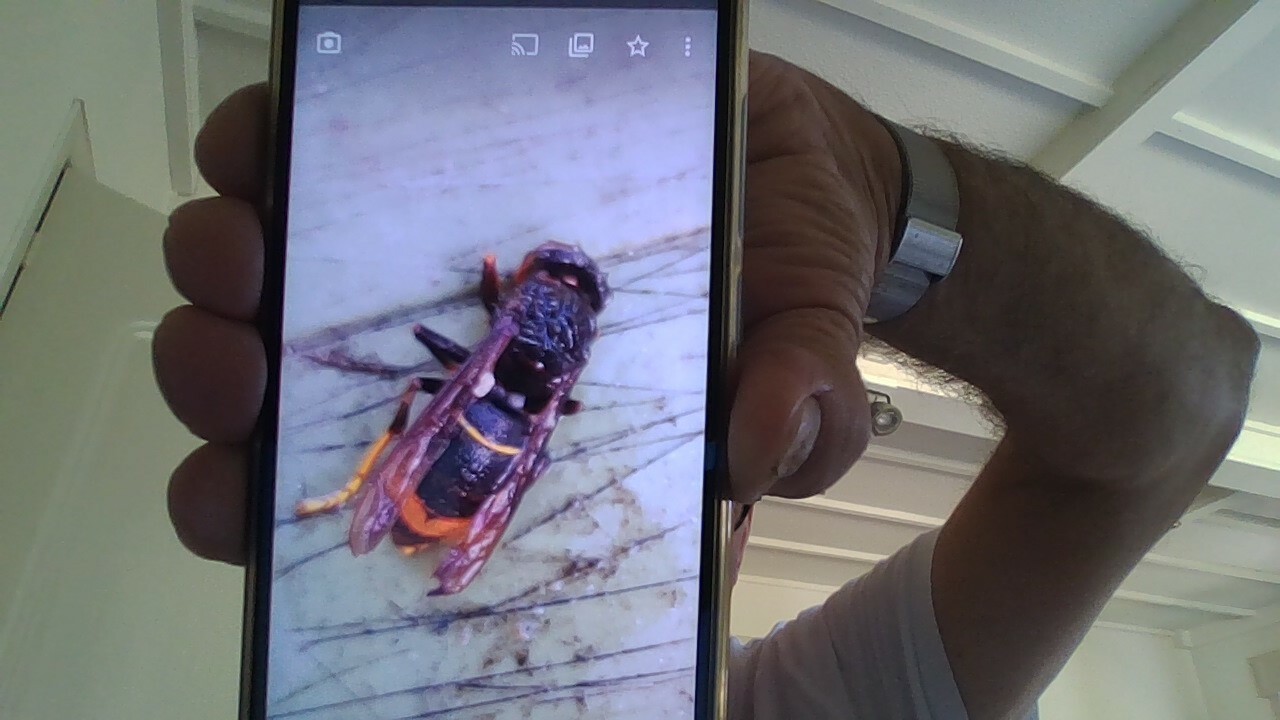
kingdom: Animalia
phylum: Arthropoda
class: Insecta
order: Hymenoptera
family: Vespidae
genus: Vespa
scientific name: Vespa velutina
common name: Asian hornet
